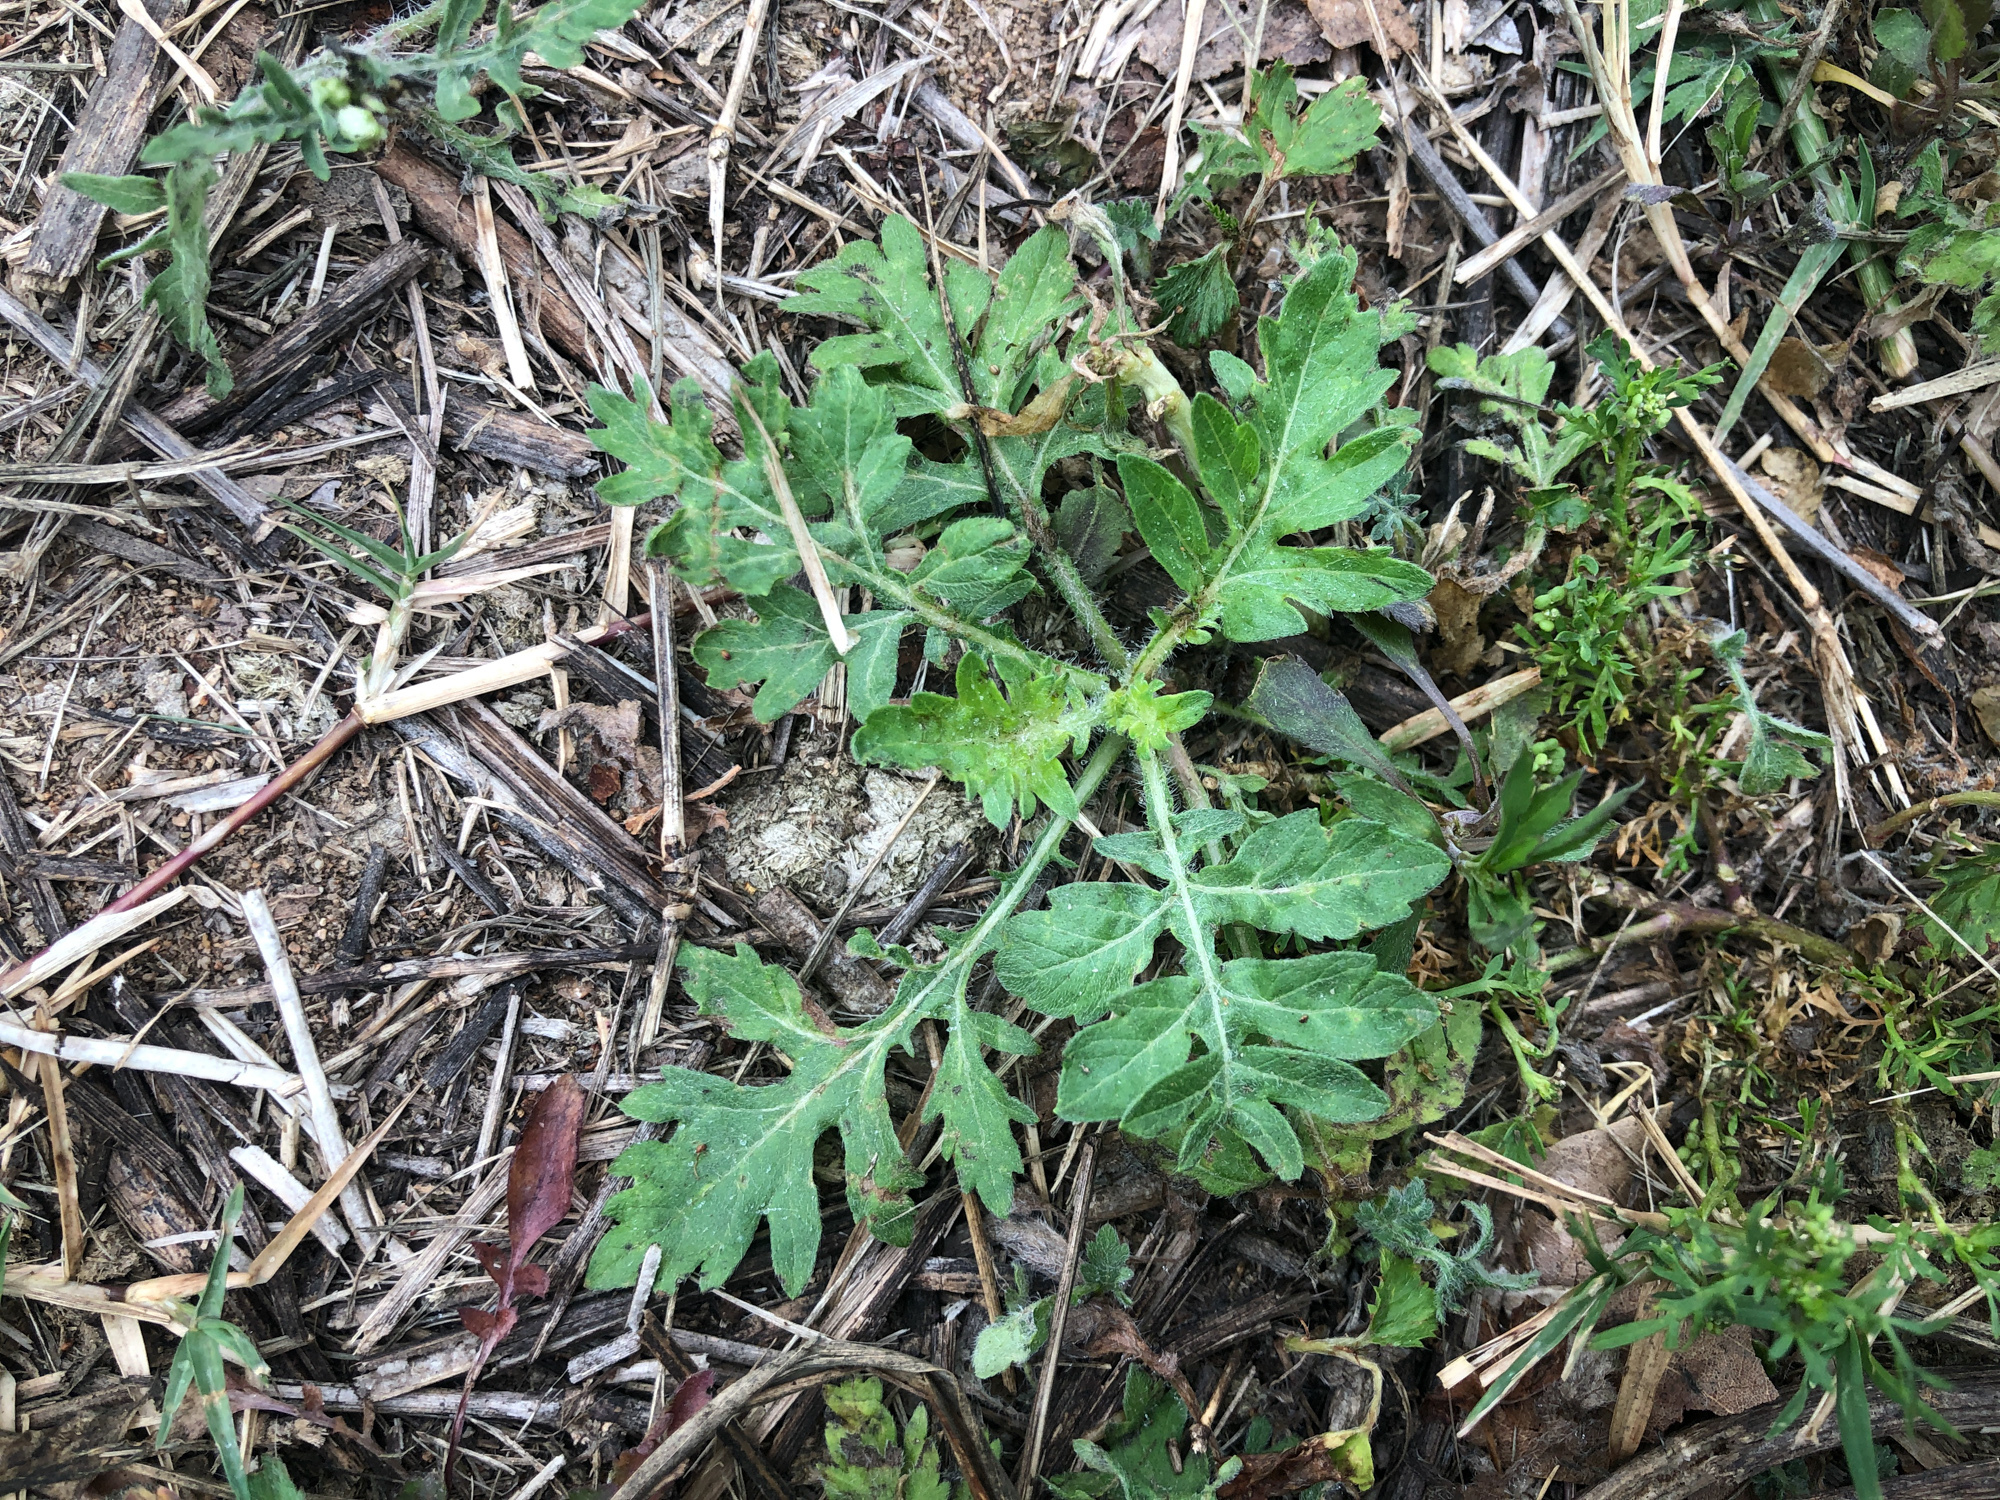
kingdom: Plantae
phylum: Tracheophyta
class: Magnoliopsida
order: Asterales
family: Asteraceae
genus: Parthenium
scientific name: Parthenium hysterophorus
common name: Santa maria feverfew
